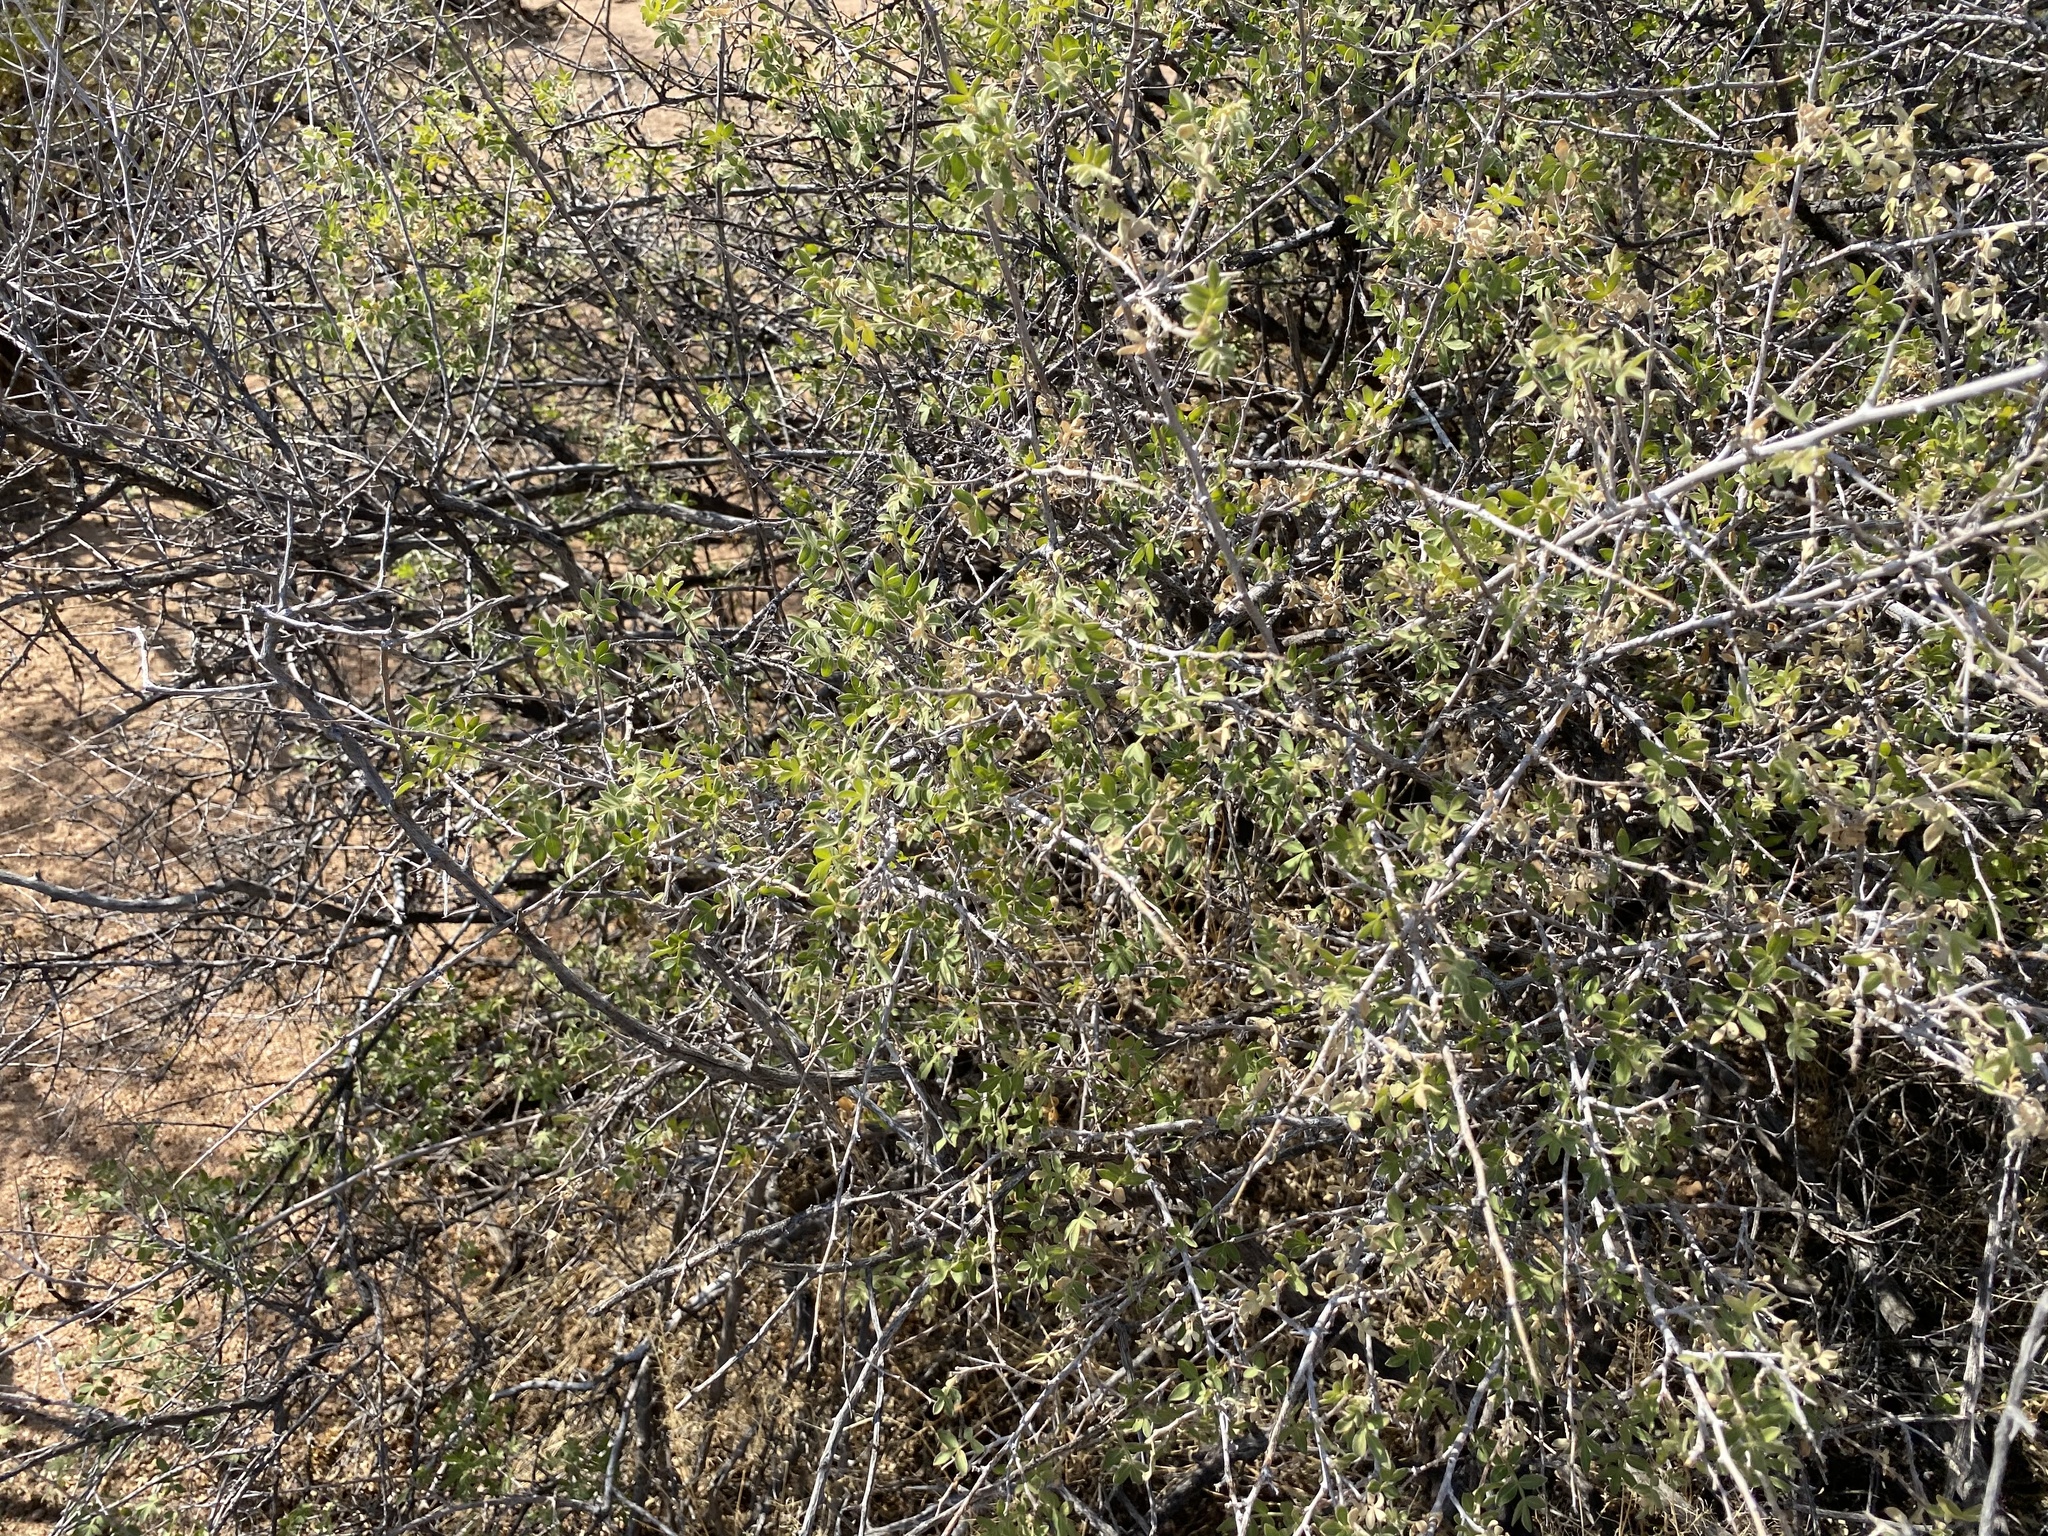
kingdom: Plantae
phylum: Tracheophyta
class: Magnoliopsida
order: Sapindales
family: Anacardiaceae
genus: Rhus
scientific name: Rhus microphylla
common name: Desert sumac
